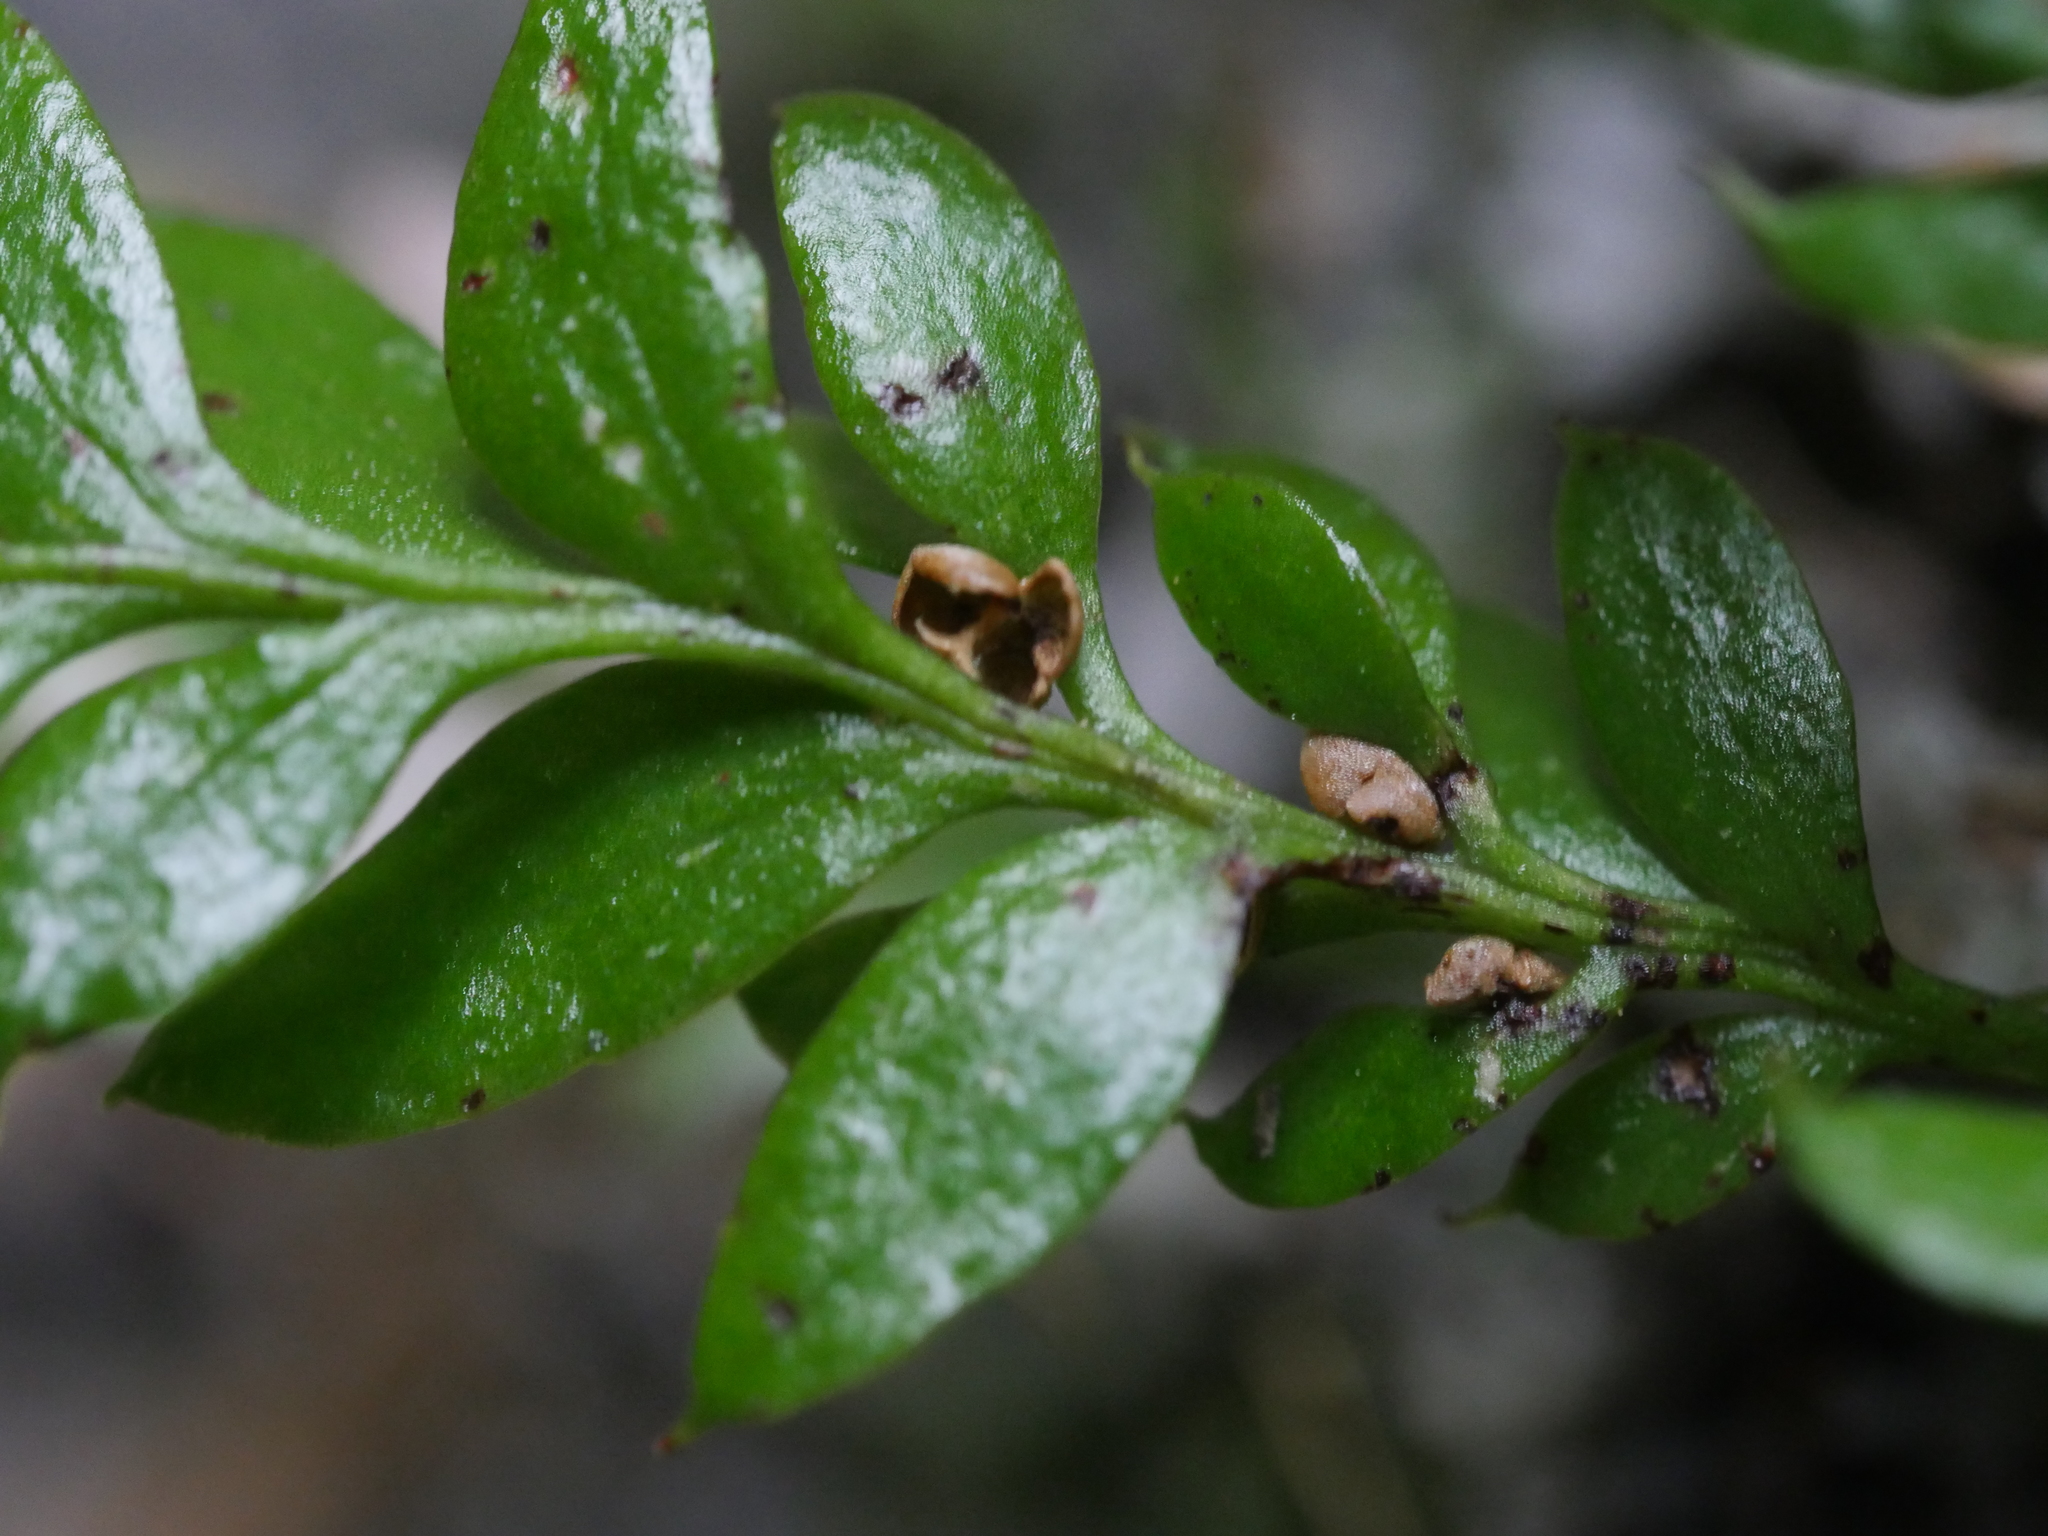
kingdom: Plantae
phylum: Tracheophyta
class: Polypodiopsida
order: Psilotales
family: Psilotaceae
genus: Tmesipteris
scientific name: Tmesipteris lanceolata
